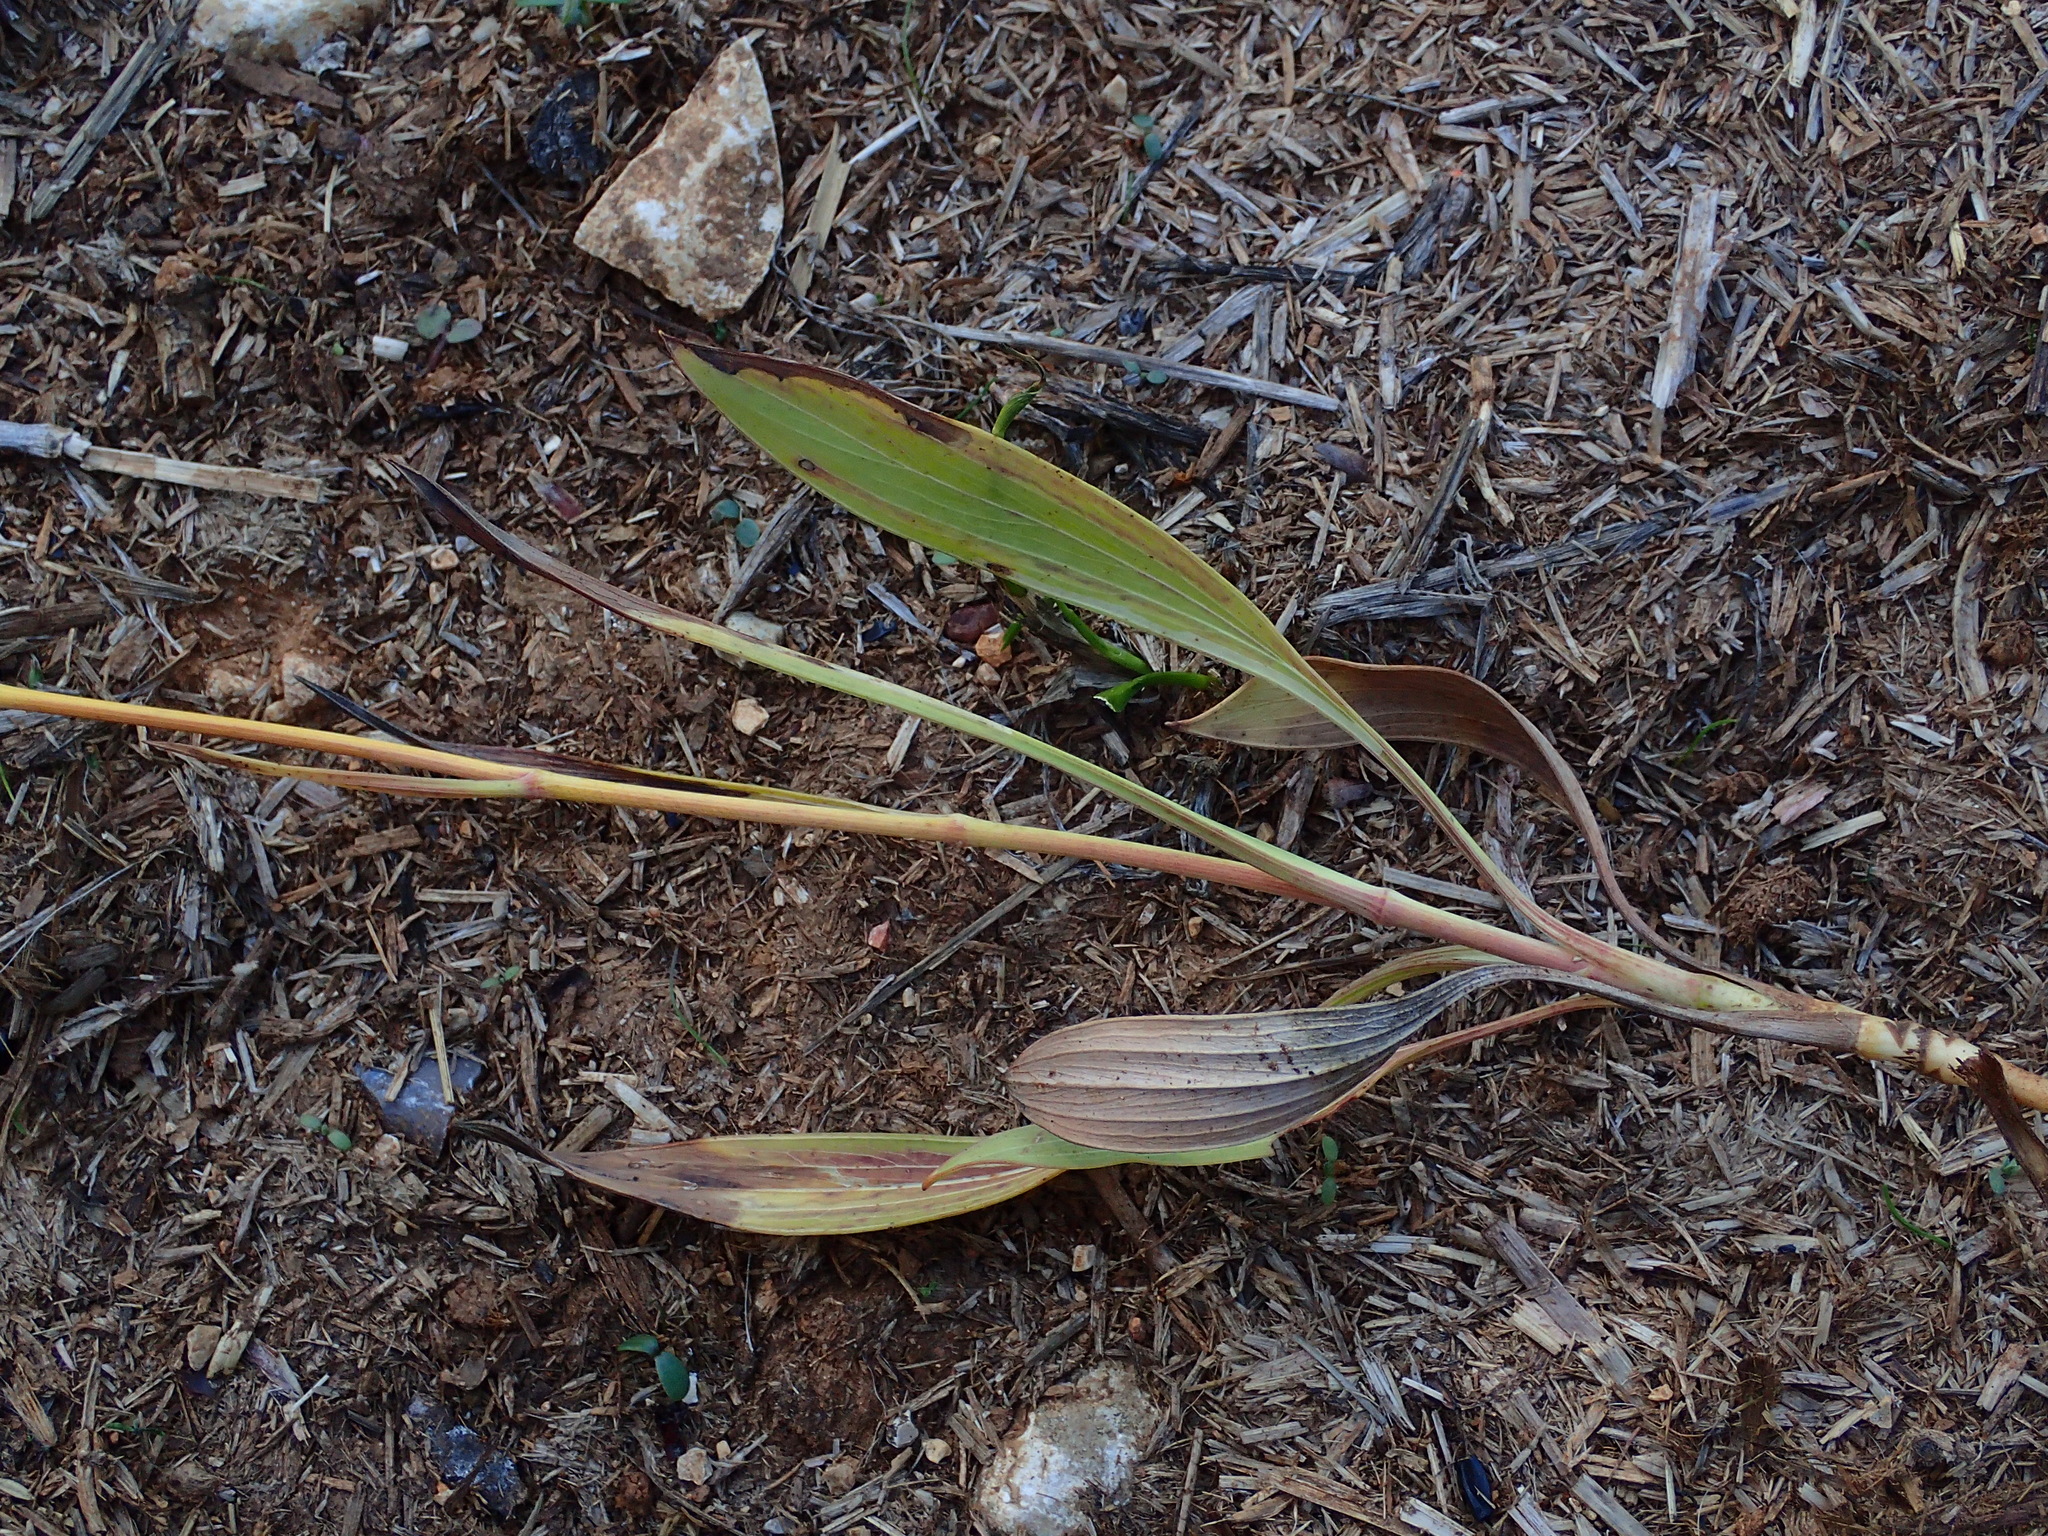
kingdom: Plantae
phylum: Tracheophyta
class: Magnoliopsida
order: Apiales
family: Apiaceae
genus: Bupleurum
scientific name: Bupleurum rigidum
